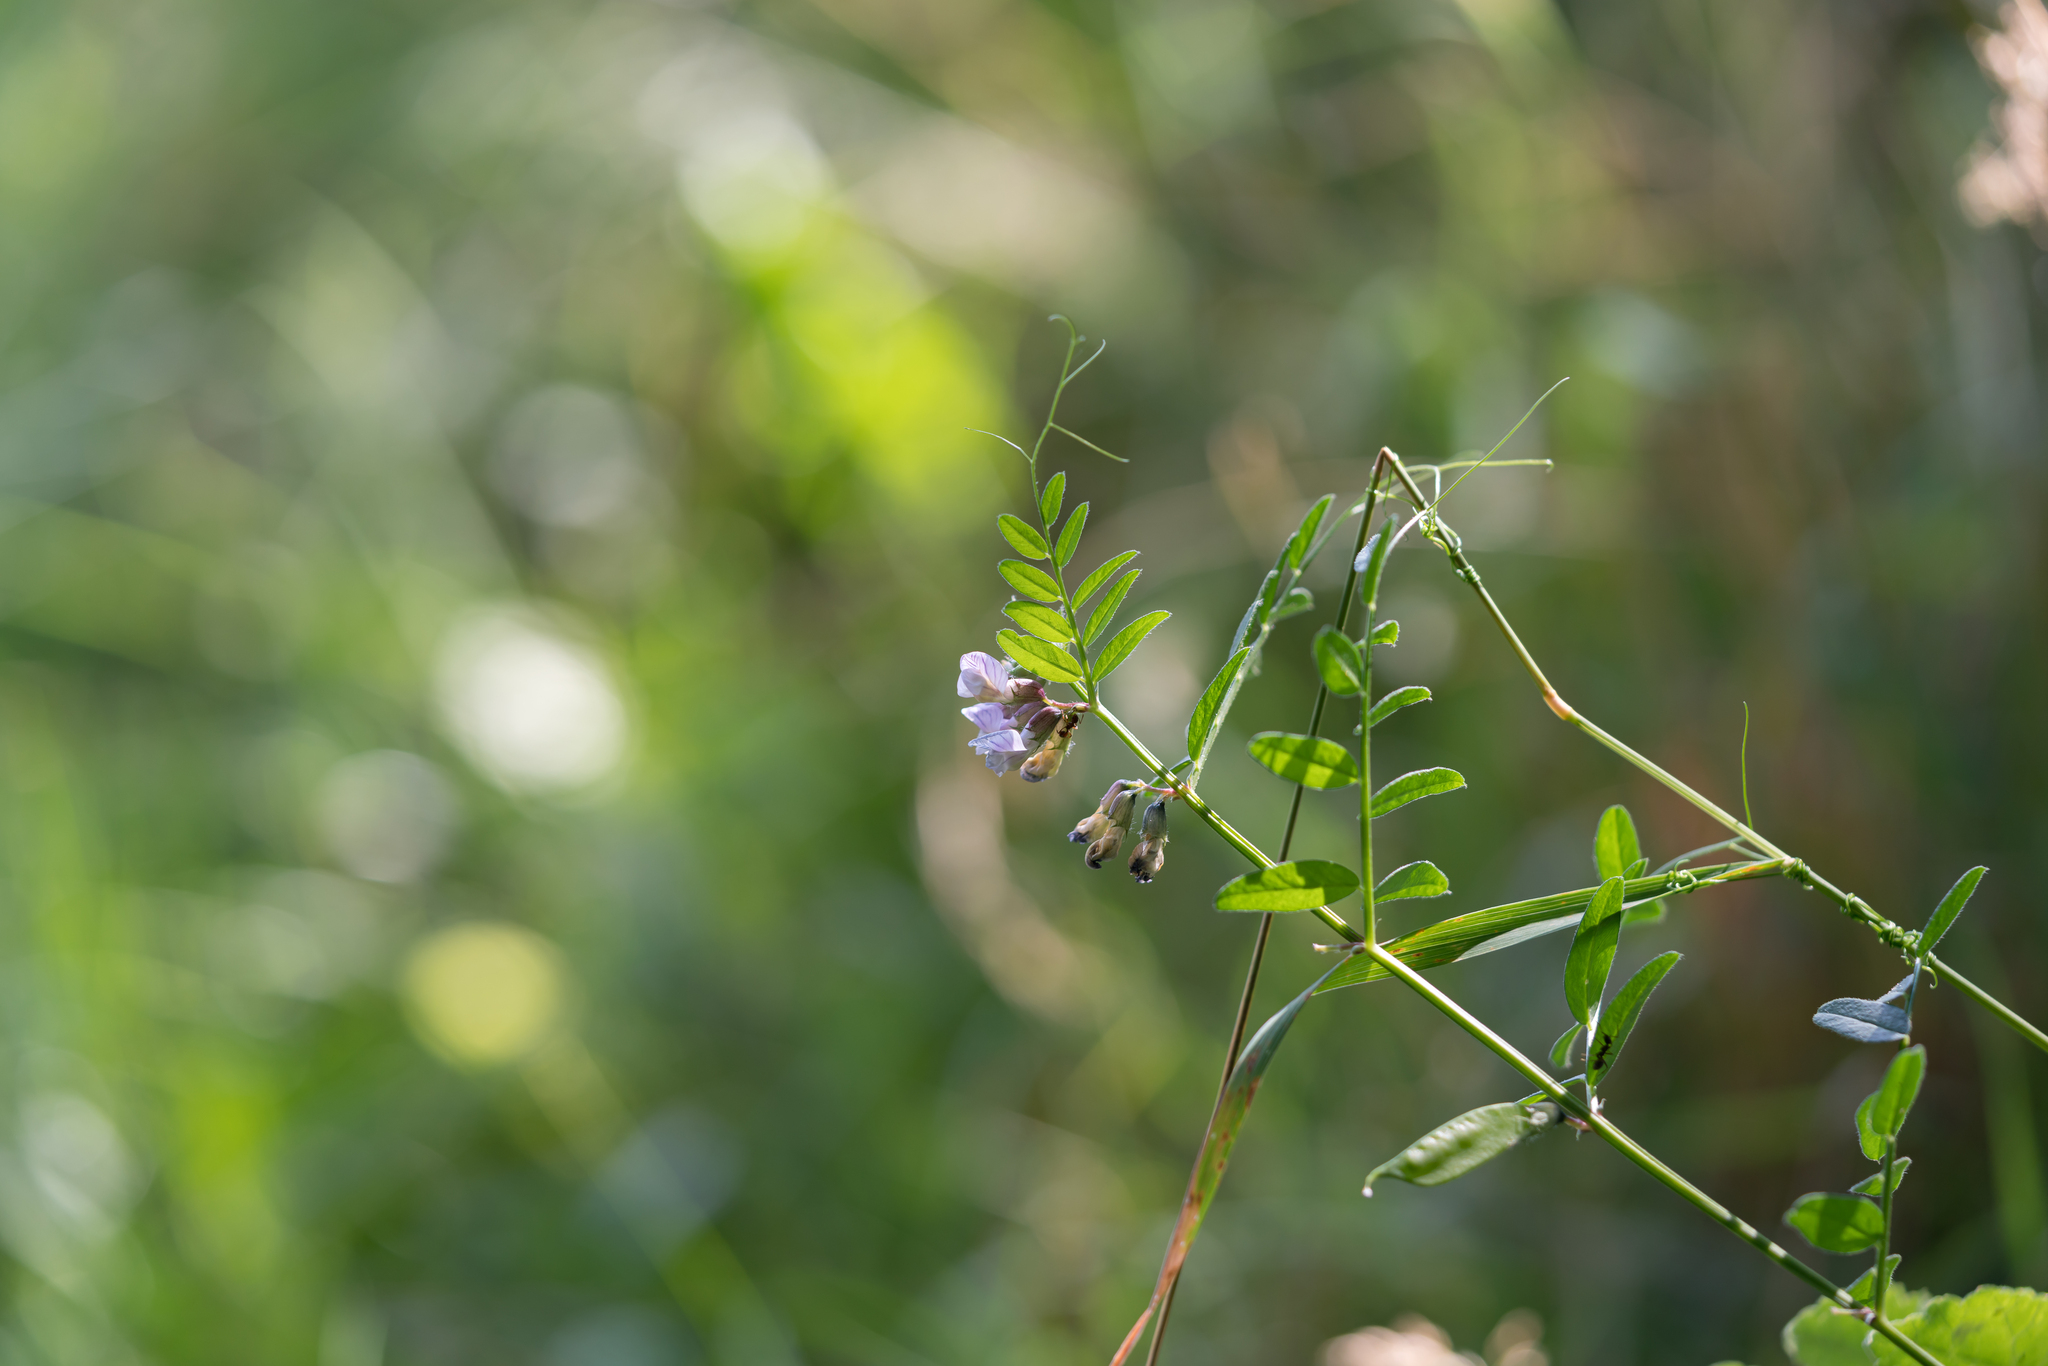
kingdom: Plantae
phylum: Tracheophyta
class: Magnoliopsida
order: Fabales
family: Fabaceae
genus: Vicia
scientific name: Vicia sepium
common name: Bush vetch
